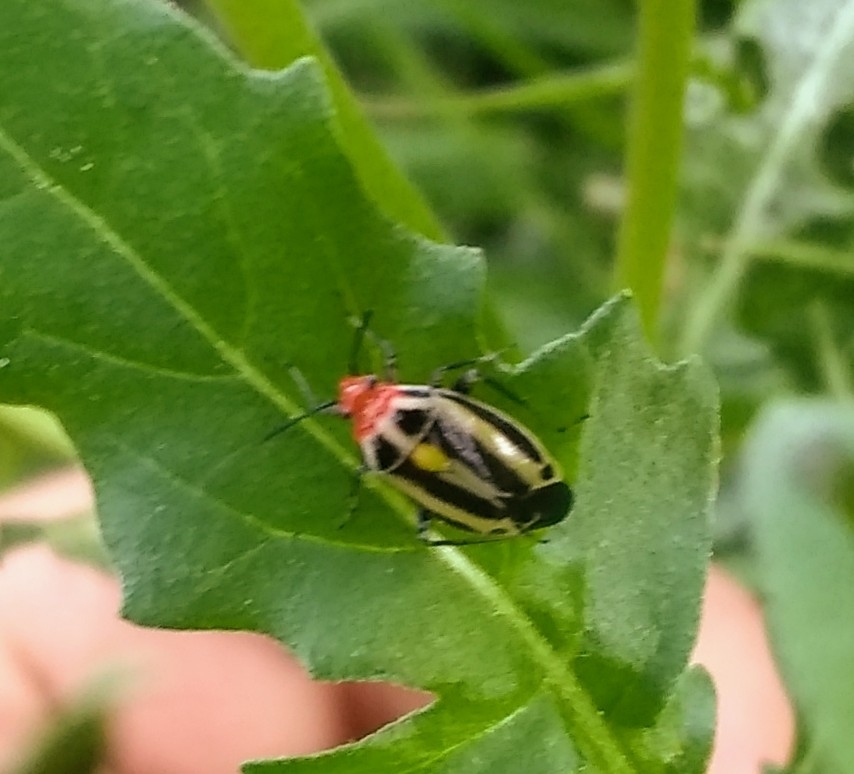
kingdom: Animalia
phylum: Arthropoda
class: Insecta
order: Hemiptera
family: Miridae
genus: Poecilocapsus
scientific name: Poecilocapsus lineatus
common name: Four-lined plant bug
